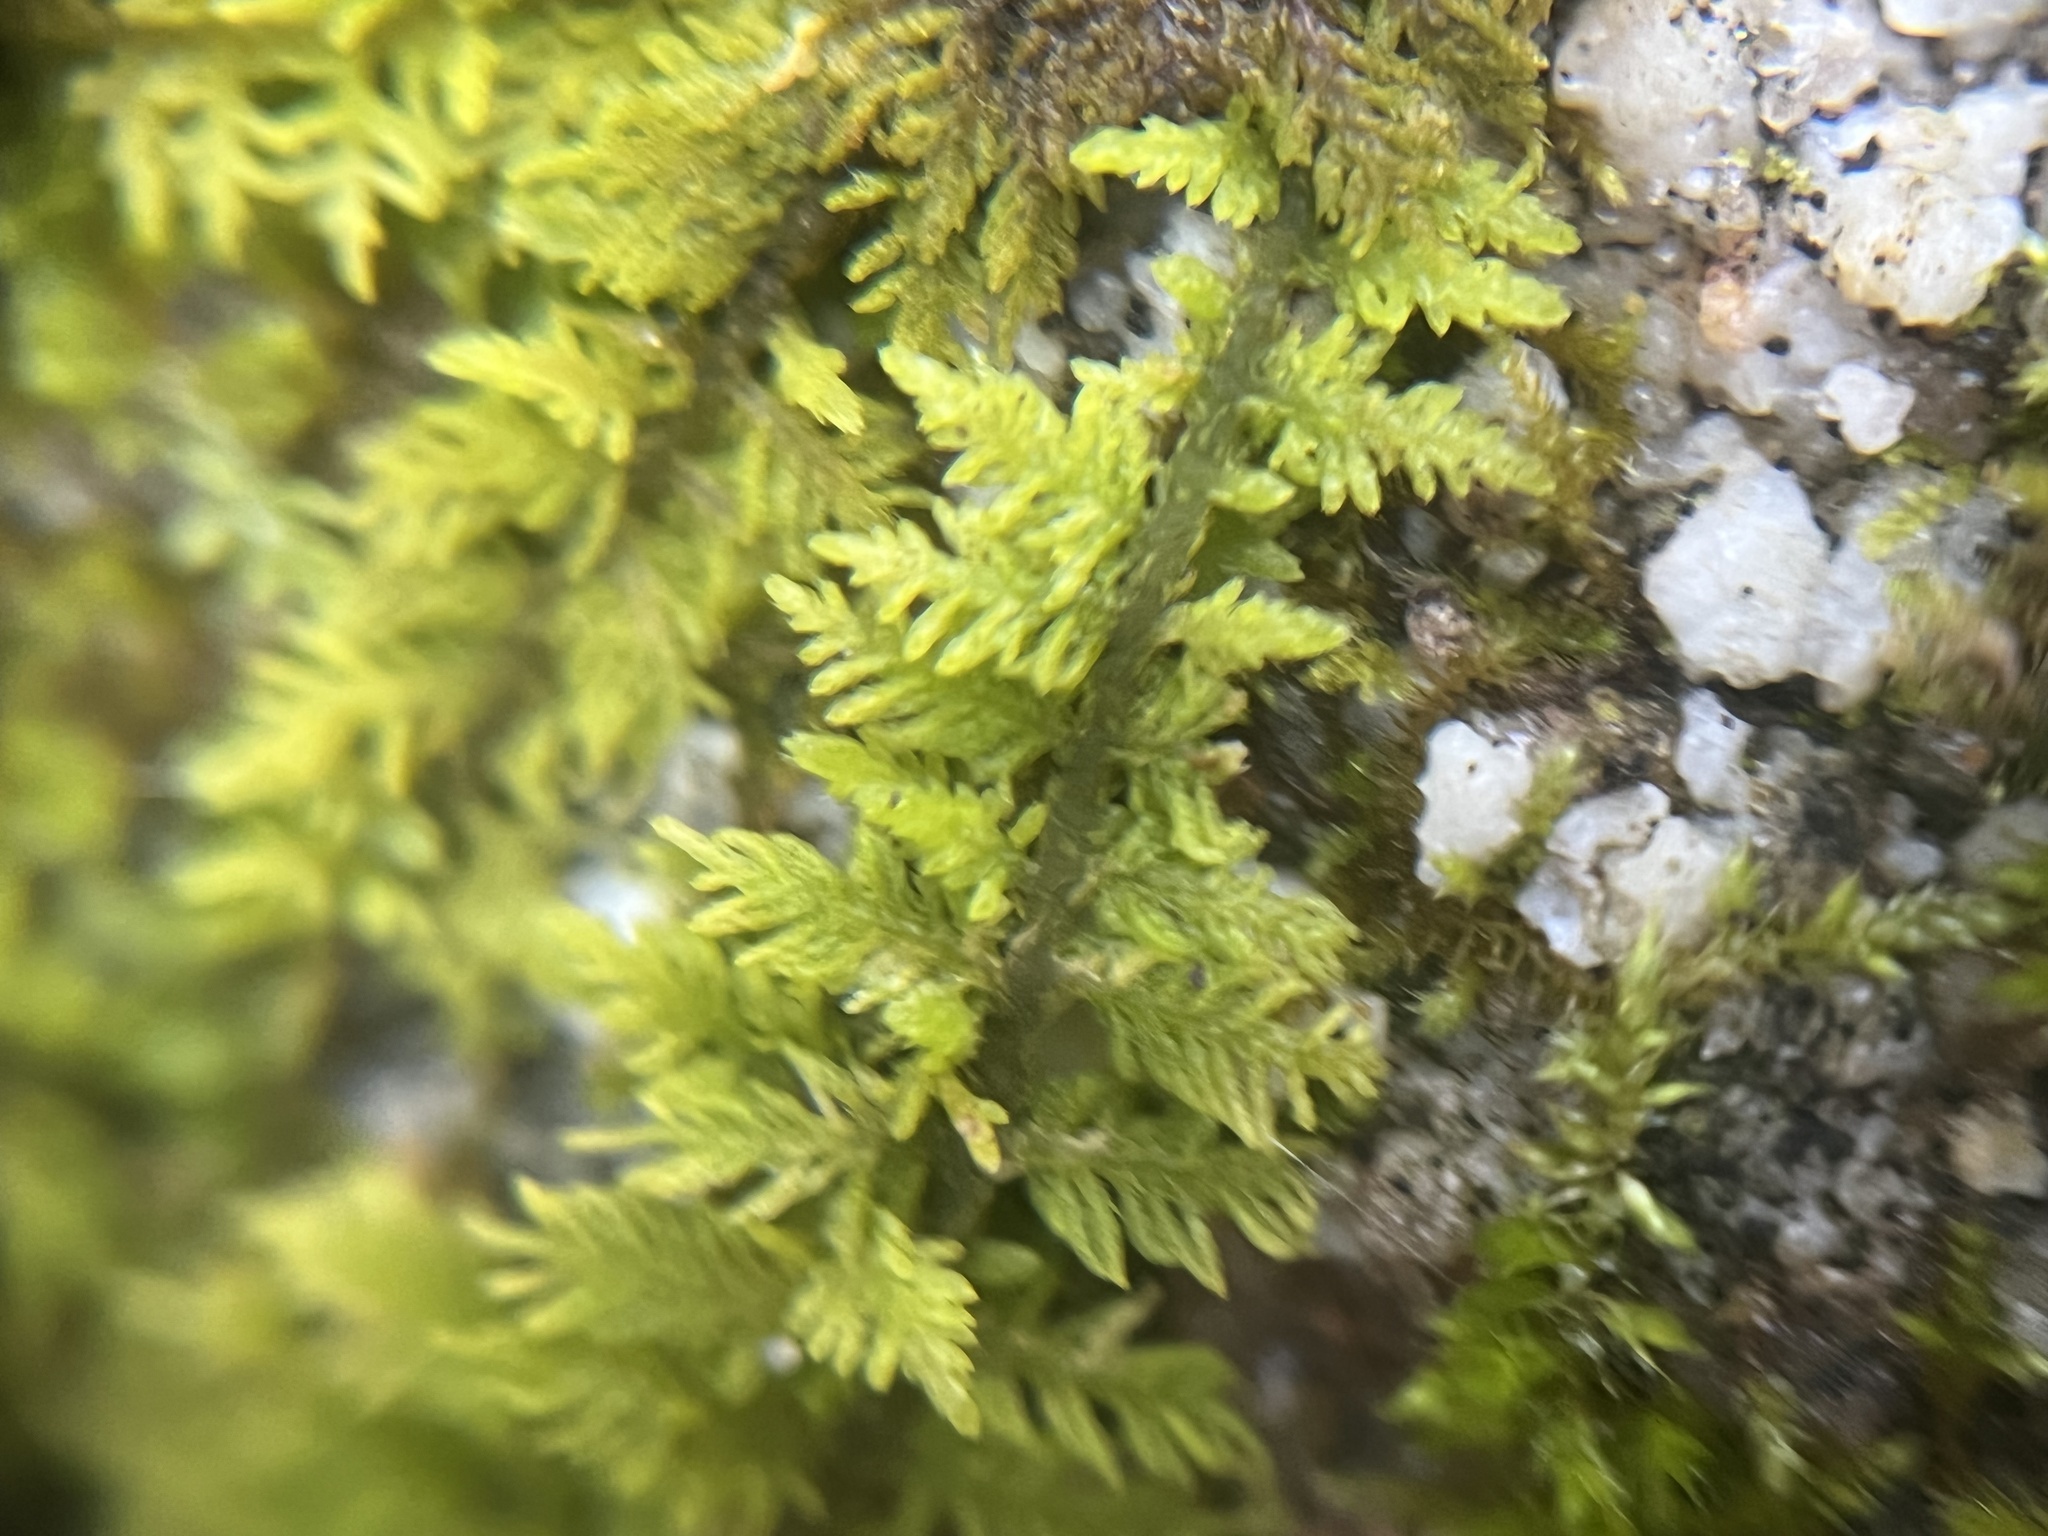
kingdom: Plantae
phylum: Bryophyta
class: Bryopsida
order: Hypnales
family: Thuidiaceae
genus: Thuidium
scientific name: Thuidium delicatulum
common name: Delicate fern moss
